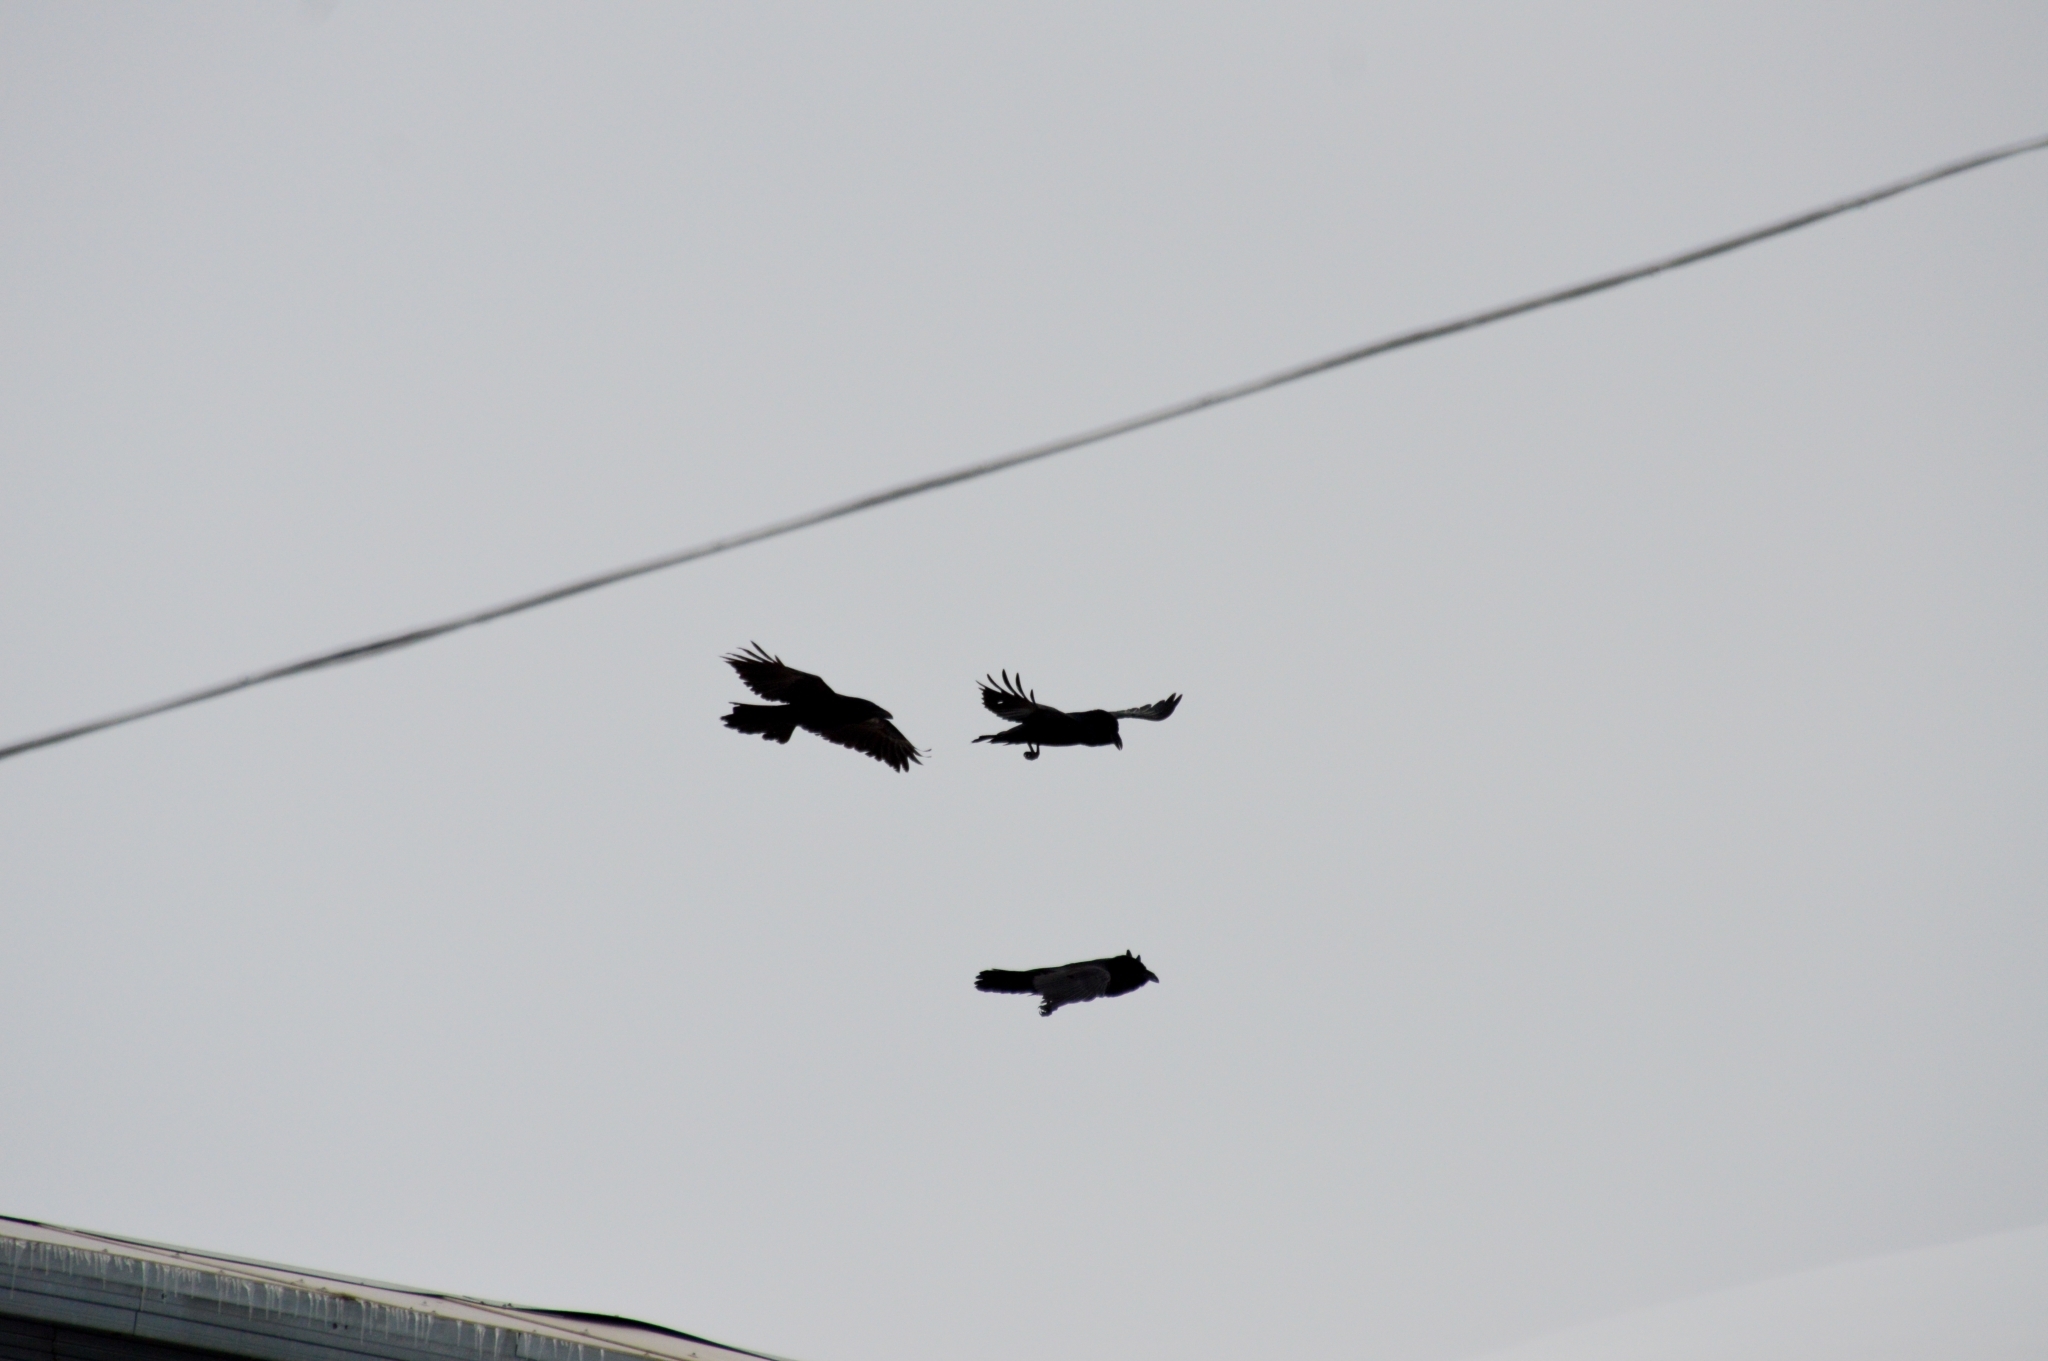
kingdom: Animalia
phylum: Chordata
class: Aves
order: Passeriformes
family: Corvidae
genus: Corvus
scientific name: Corvus corax
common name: Common raven
